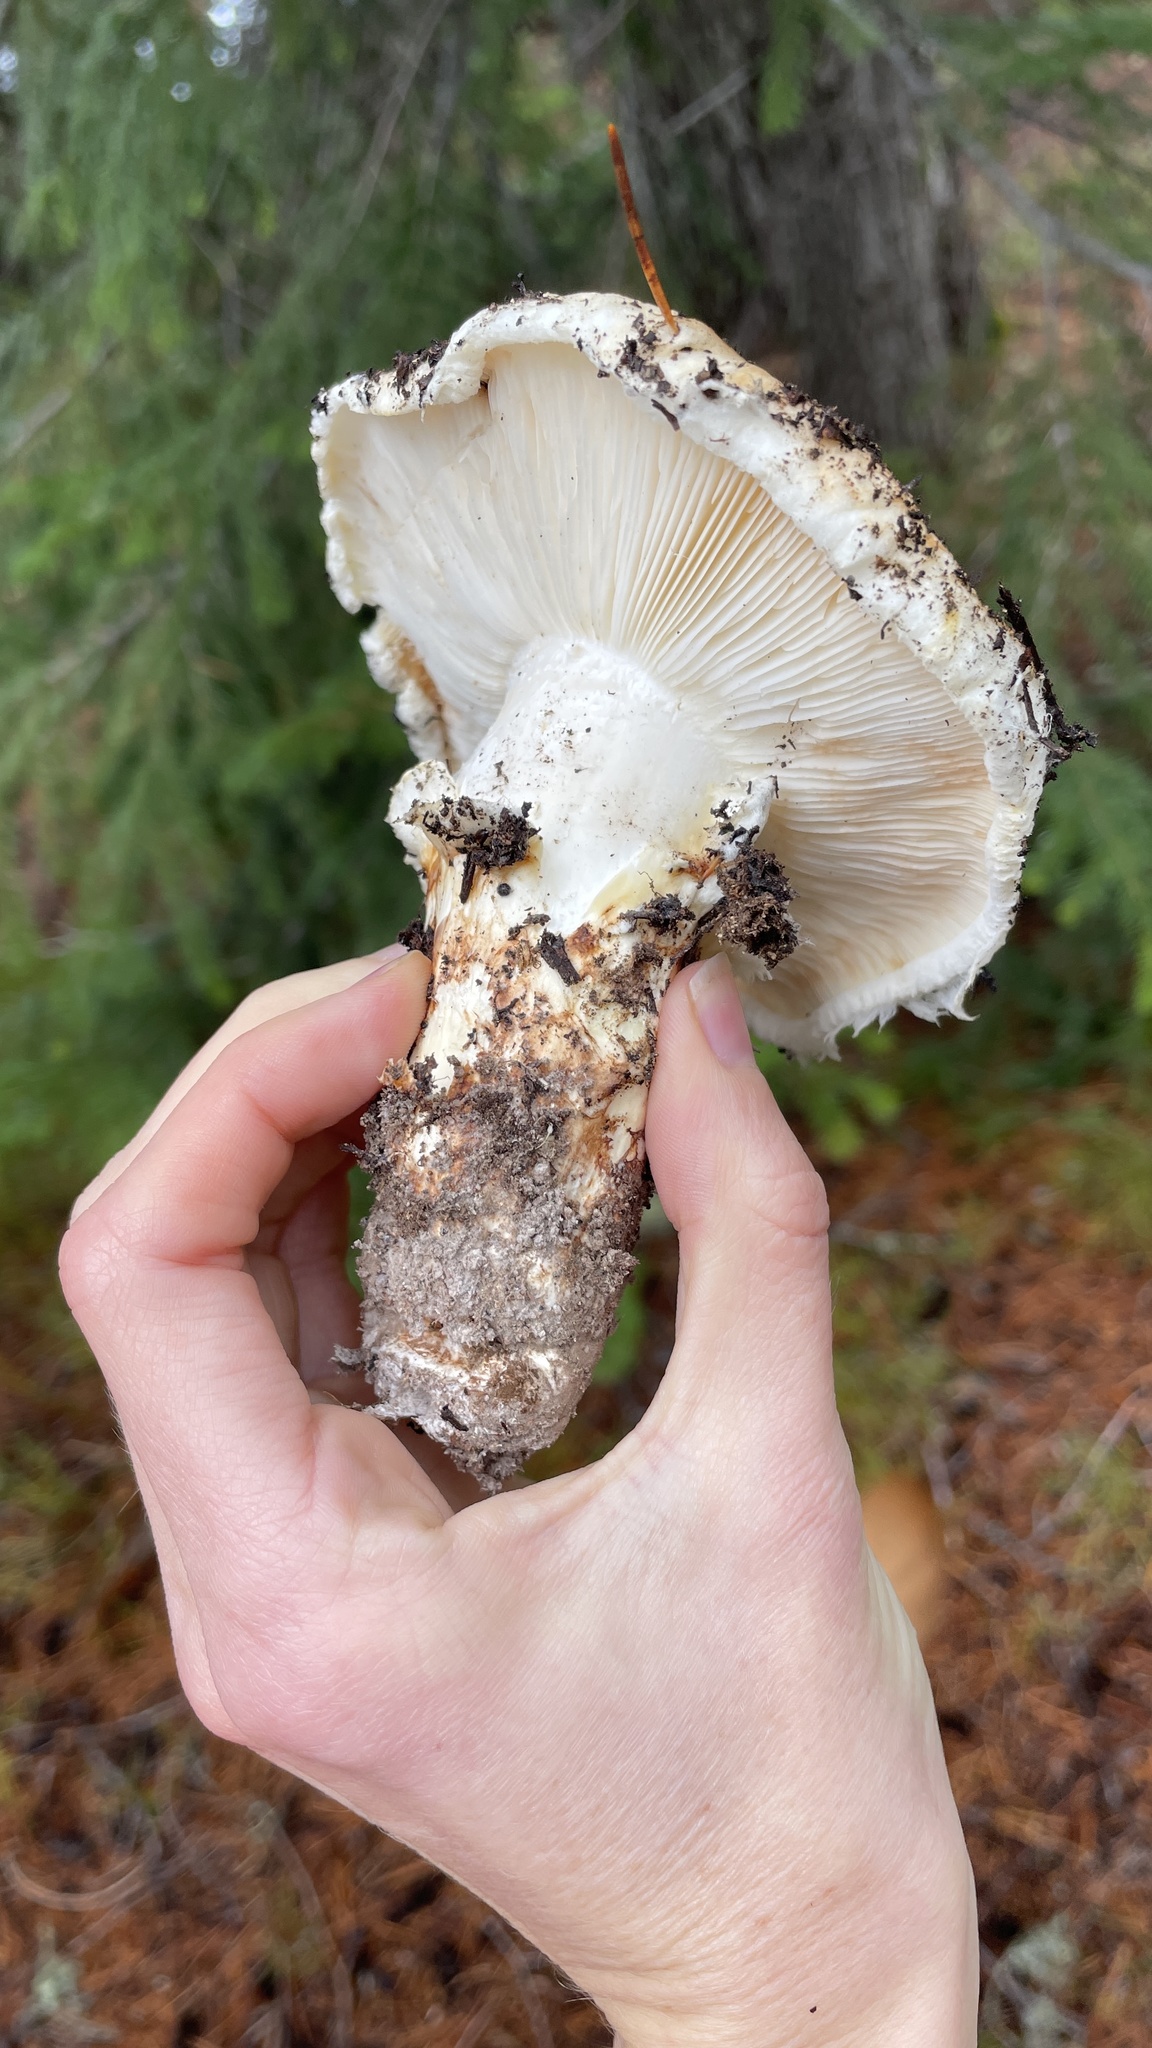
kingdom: Fungi
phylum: Basidiomycota
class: Agaricomycetes
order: Agaricales
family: Tricholomataceae
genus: Tricholoma
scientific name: Tricholoma murrillianum
